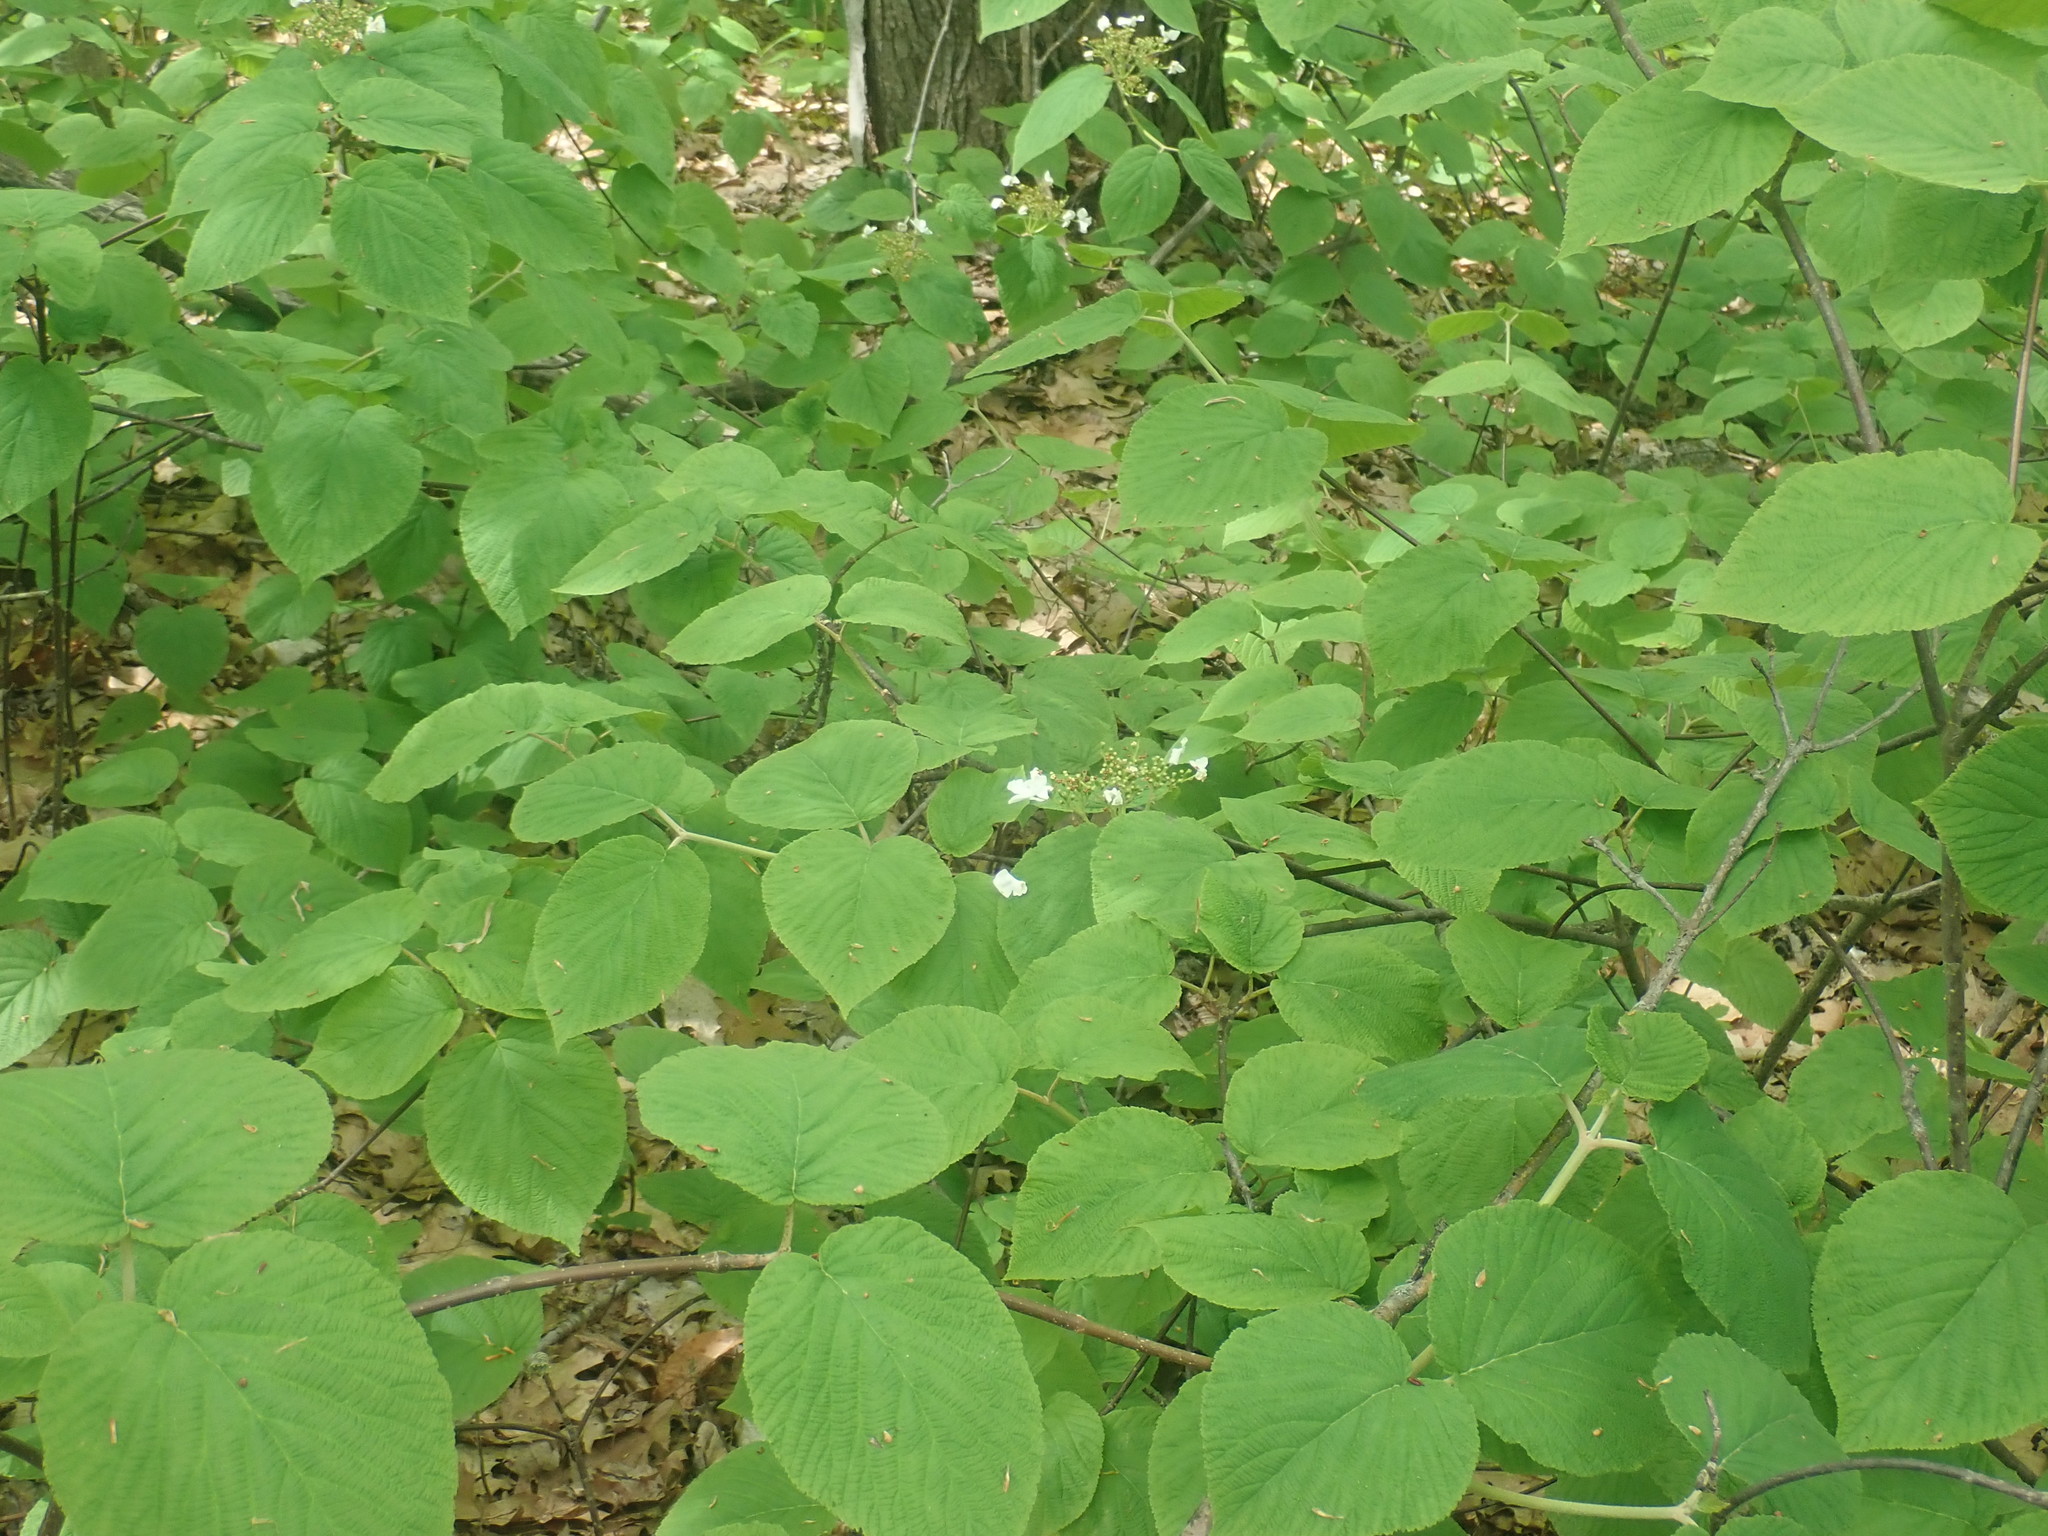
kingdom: Plantae
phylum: Tracheophyta
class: Magnoliopsida
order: Dipsacales
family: Viburnaceae
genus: Viburnum
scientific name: Viburnum lantanoides
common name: Hobblebush
